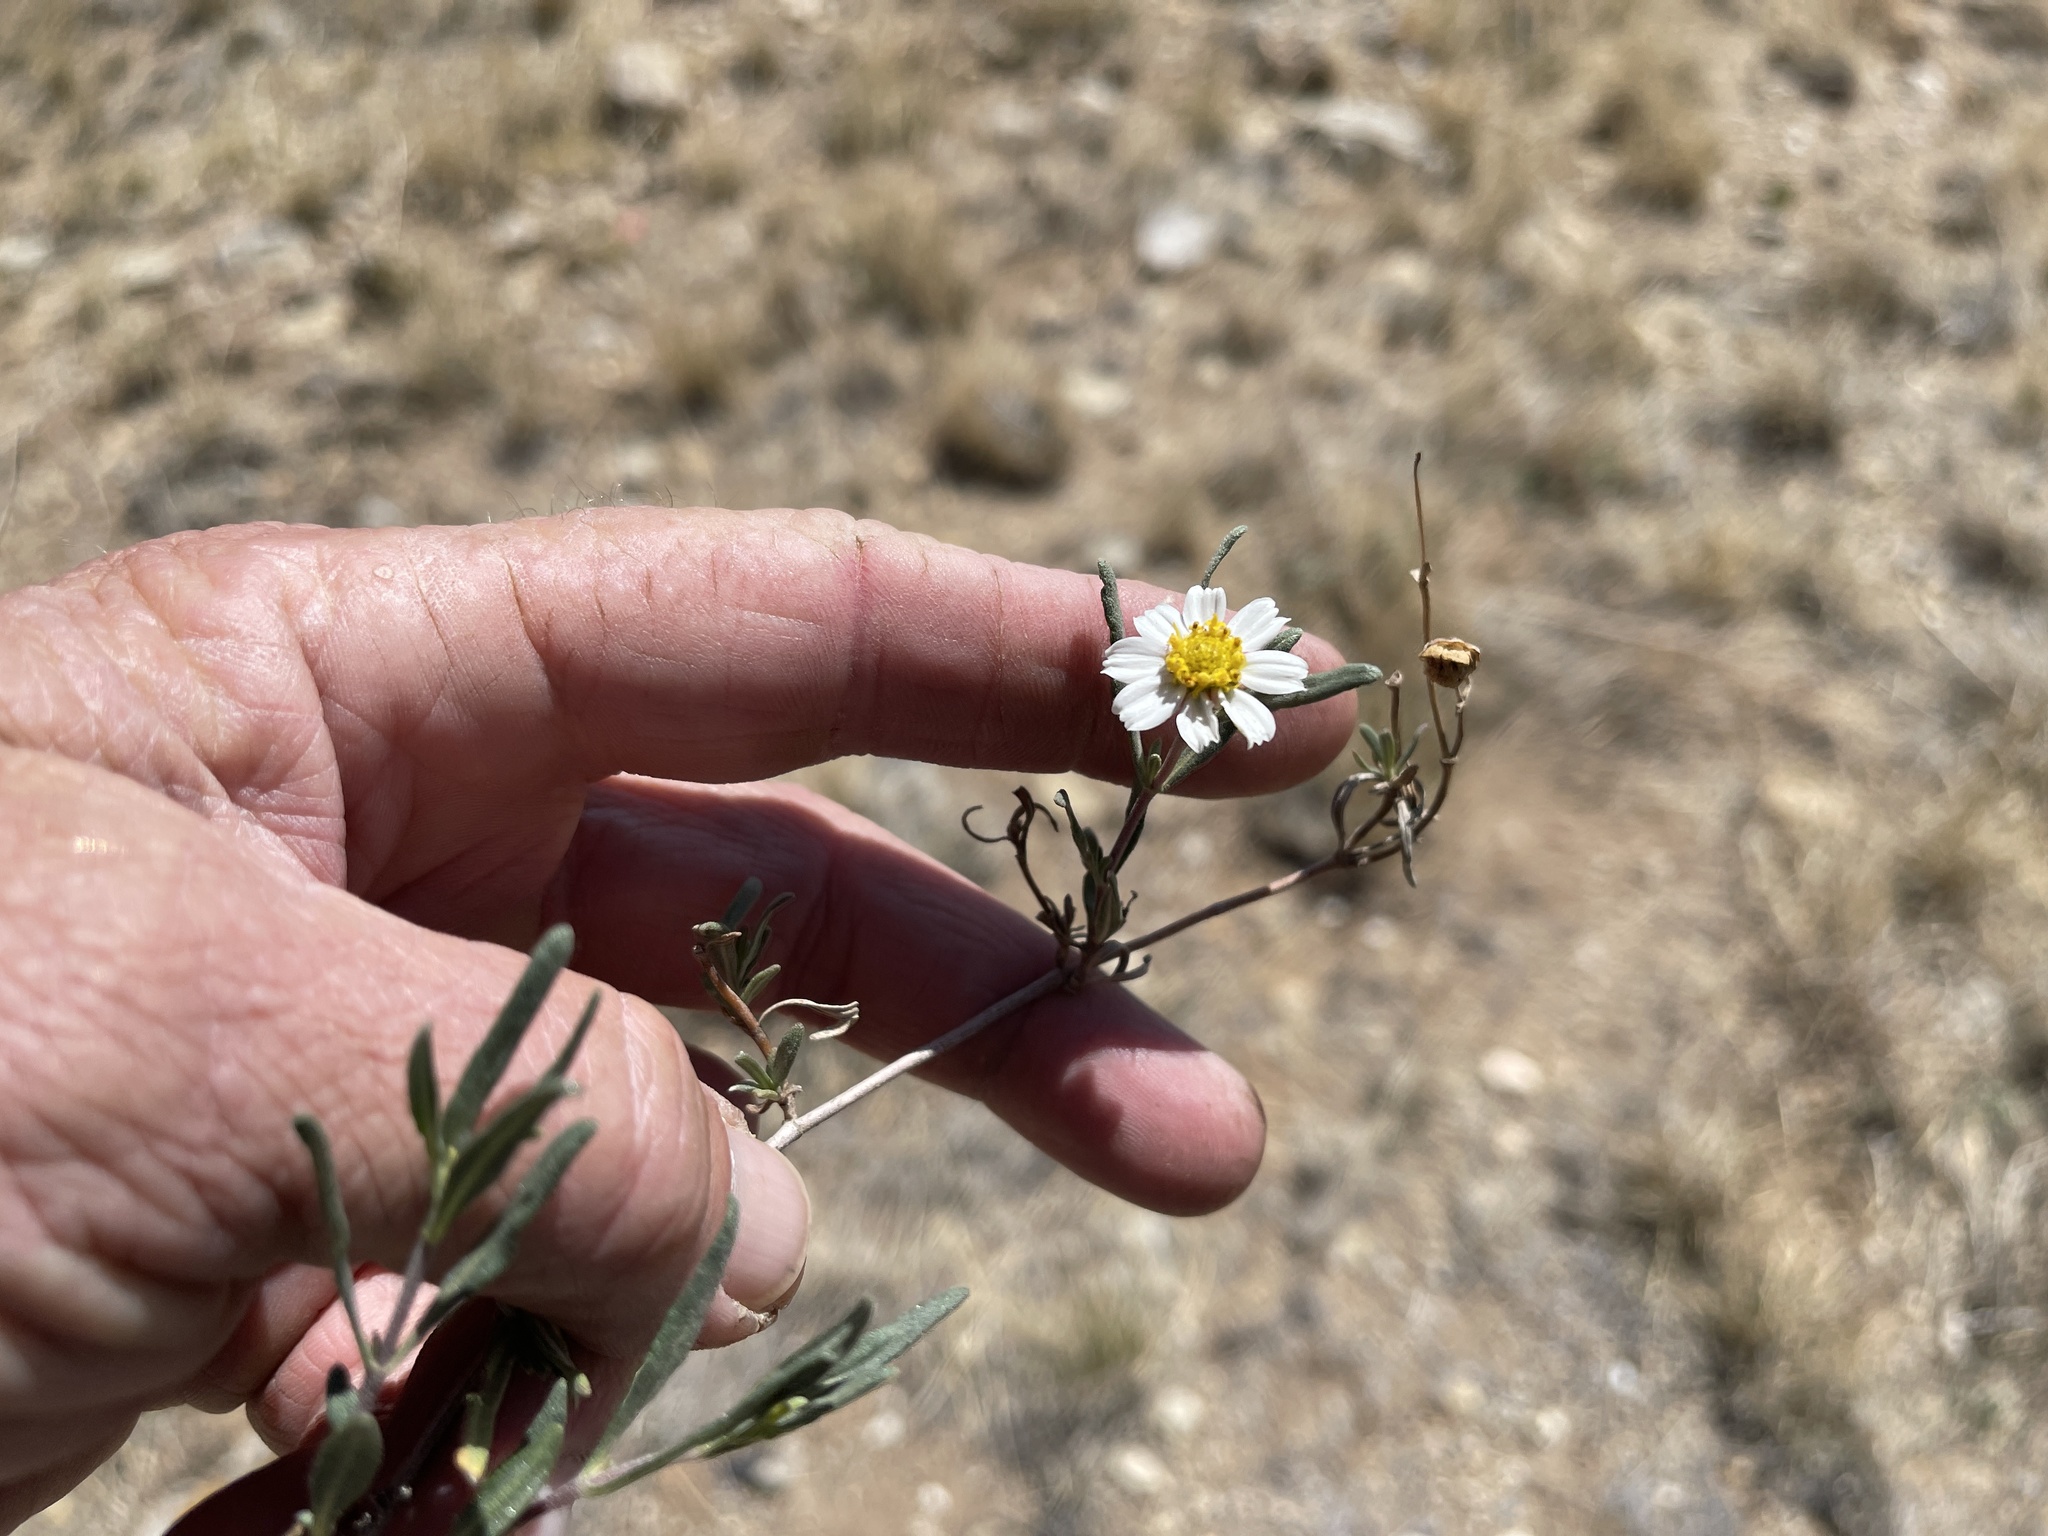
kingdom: Plantae
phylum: Tracheophyta
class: Magnoliopsida
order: Asterales
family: Asteraceae
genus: Melampodium
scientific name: Melampodium leucanthum
